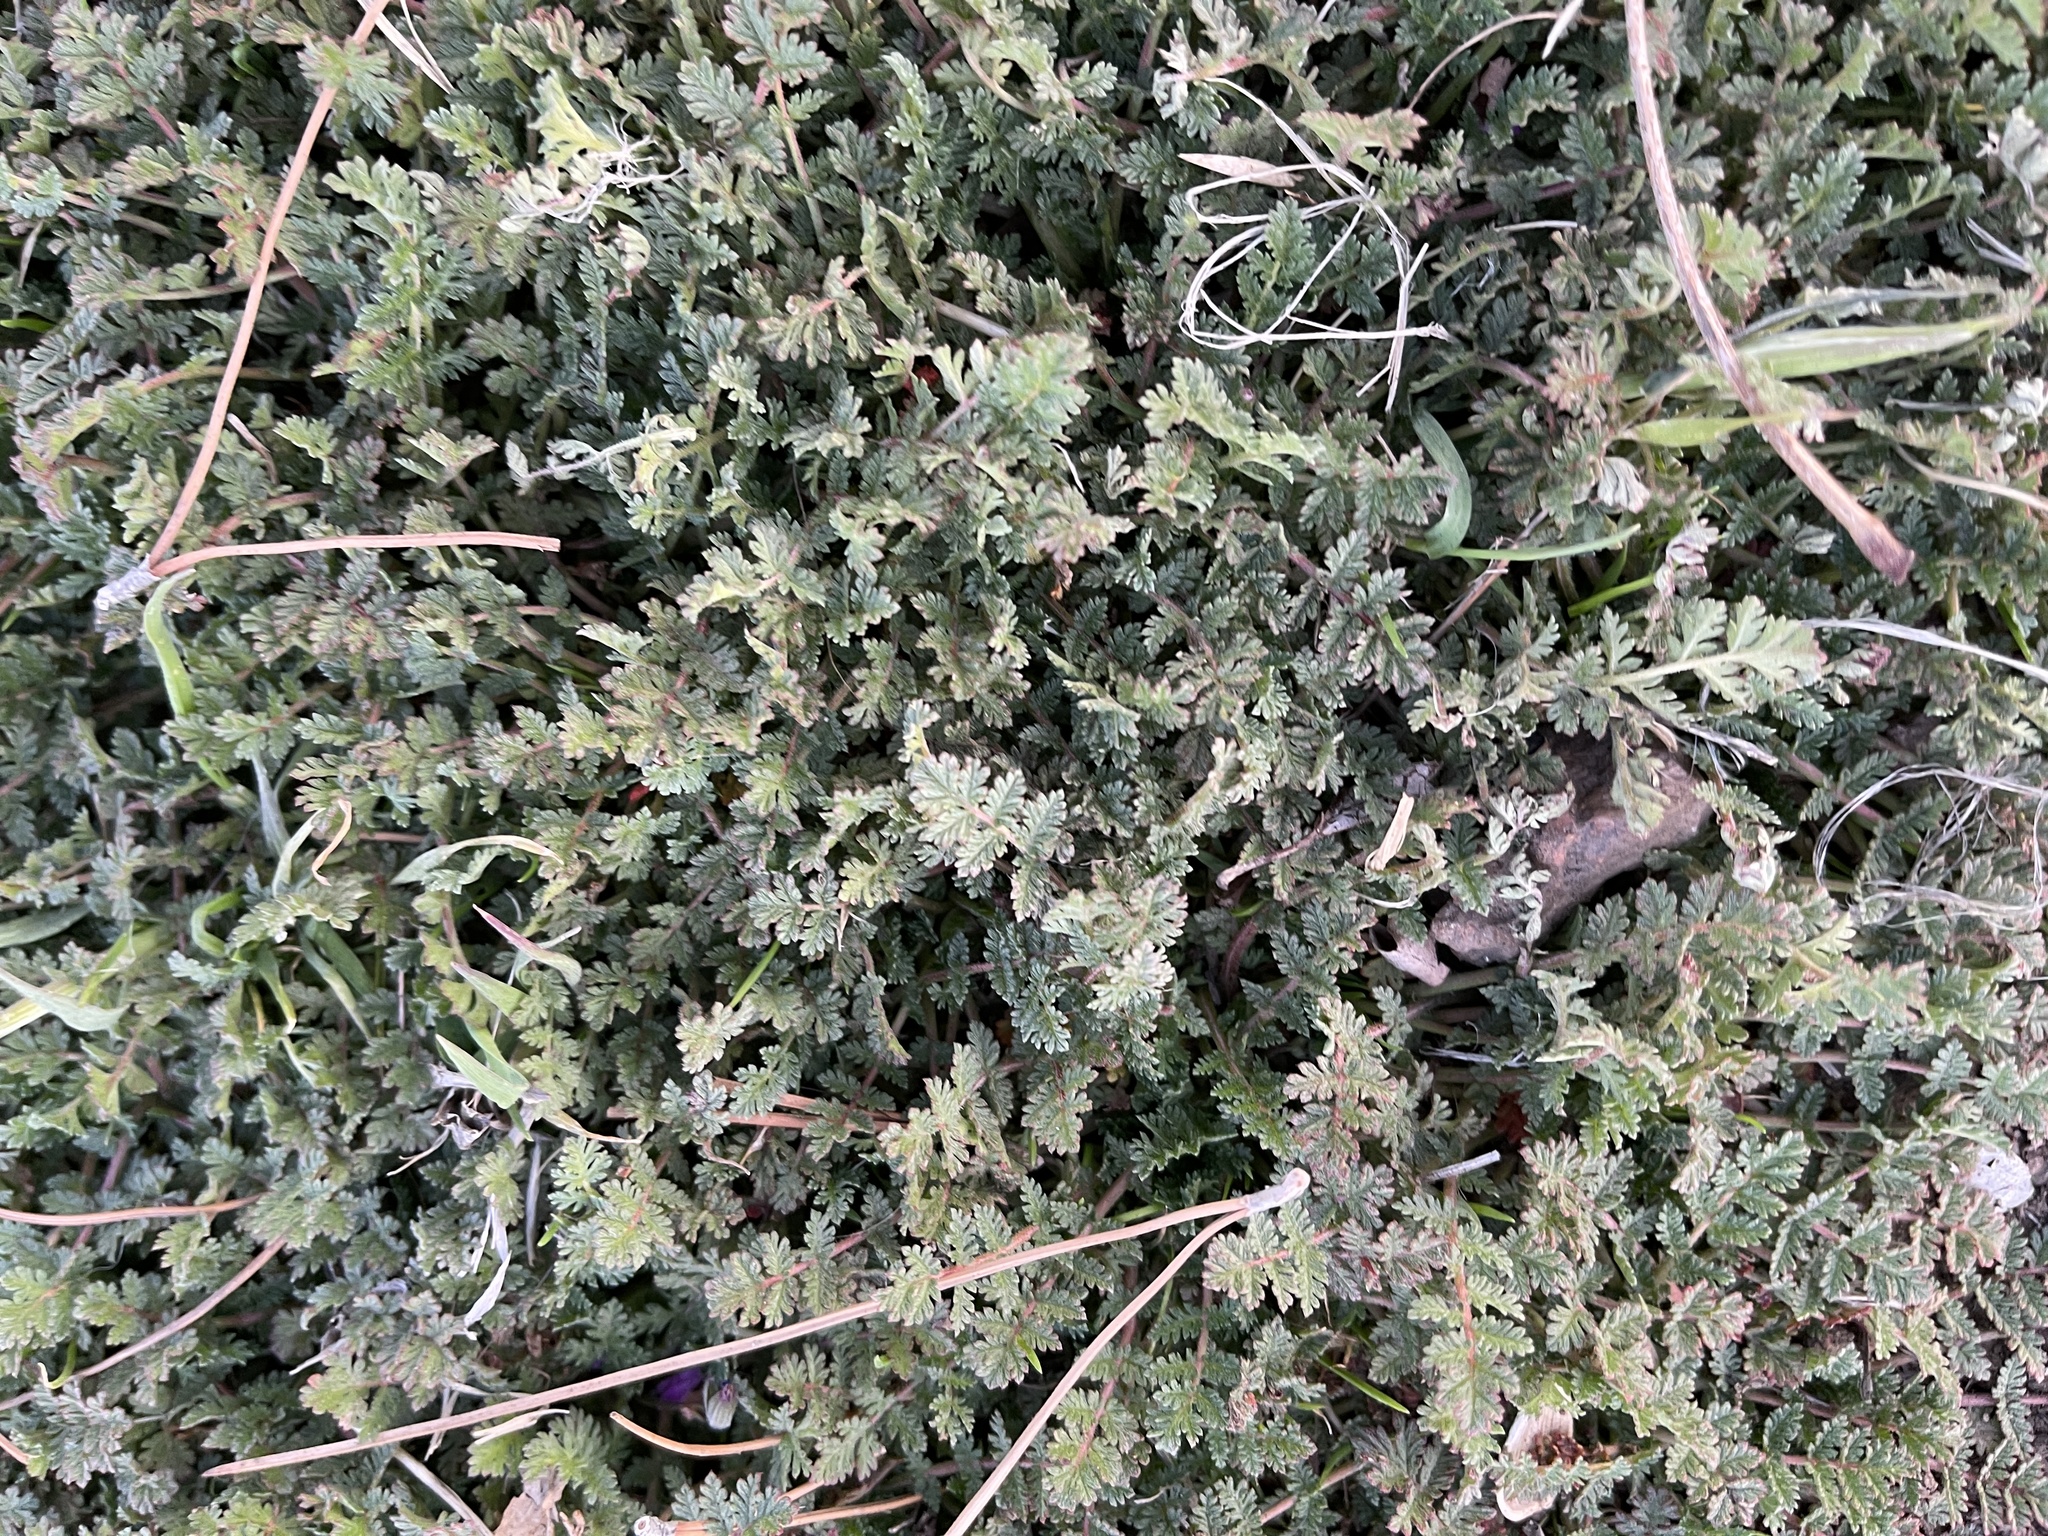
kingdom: Plantae
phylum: Tracheophyta
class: Magnoliopsida
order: Geraniales
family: Geraniaceae
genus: Erodium
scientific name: Erodium cicutarium
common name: Common stork's-bill
